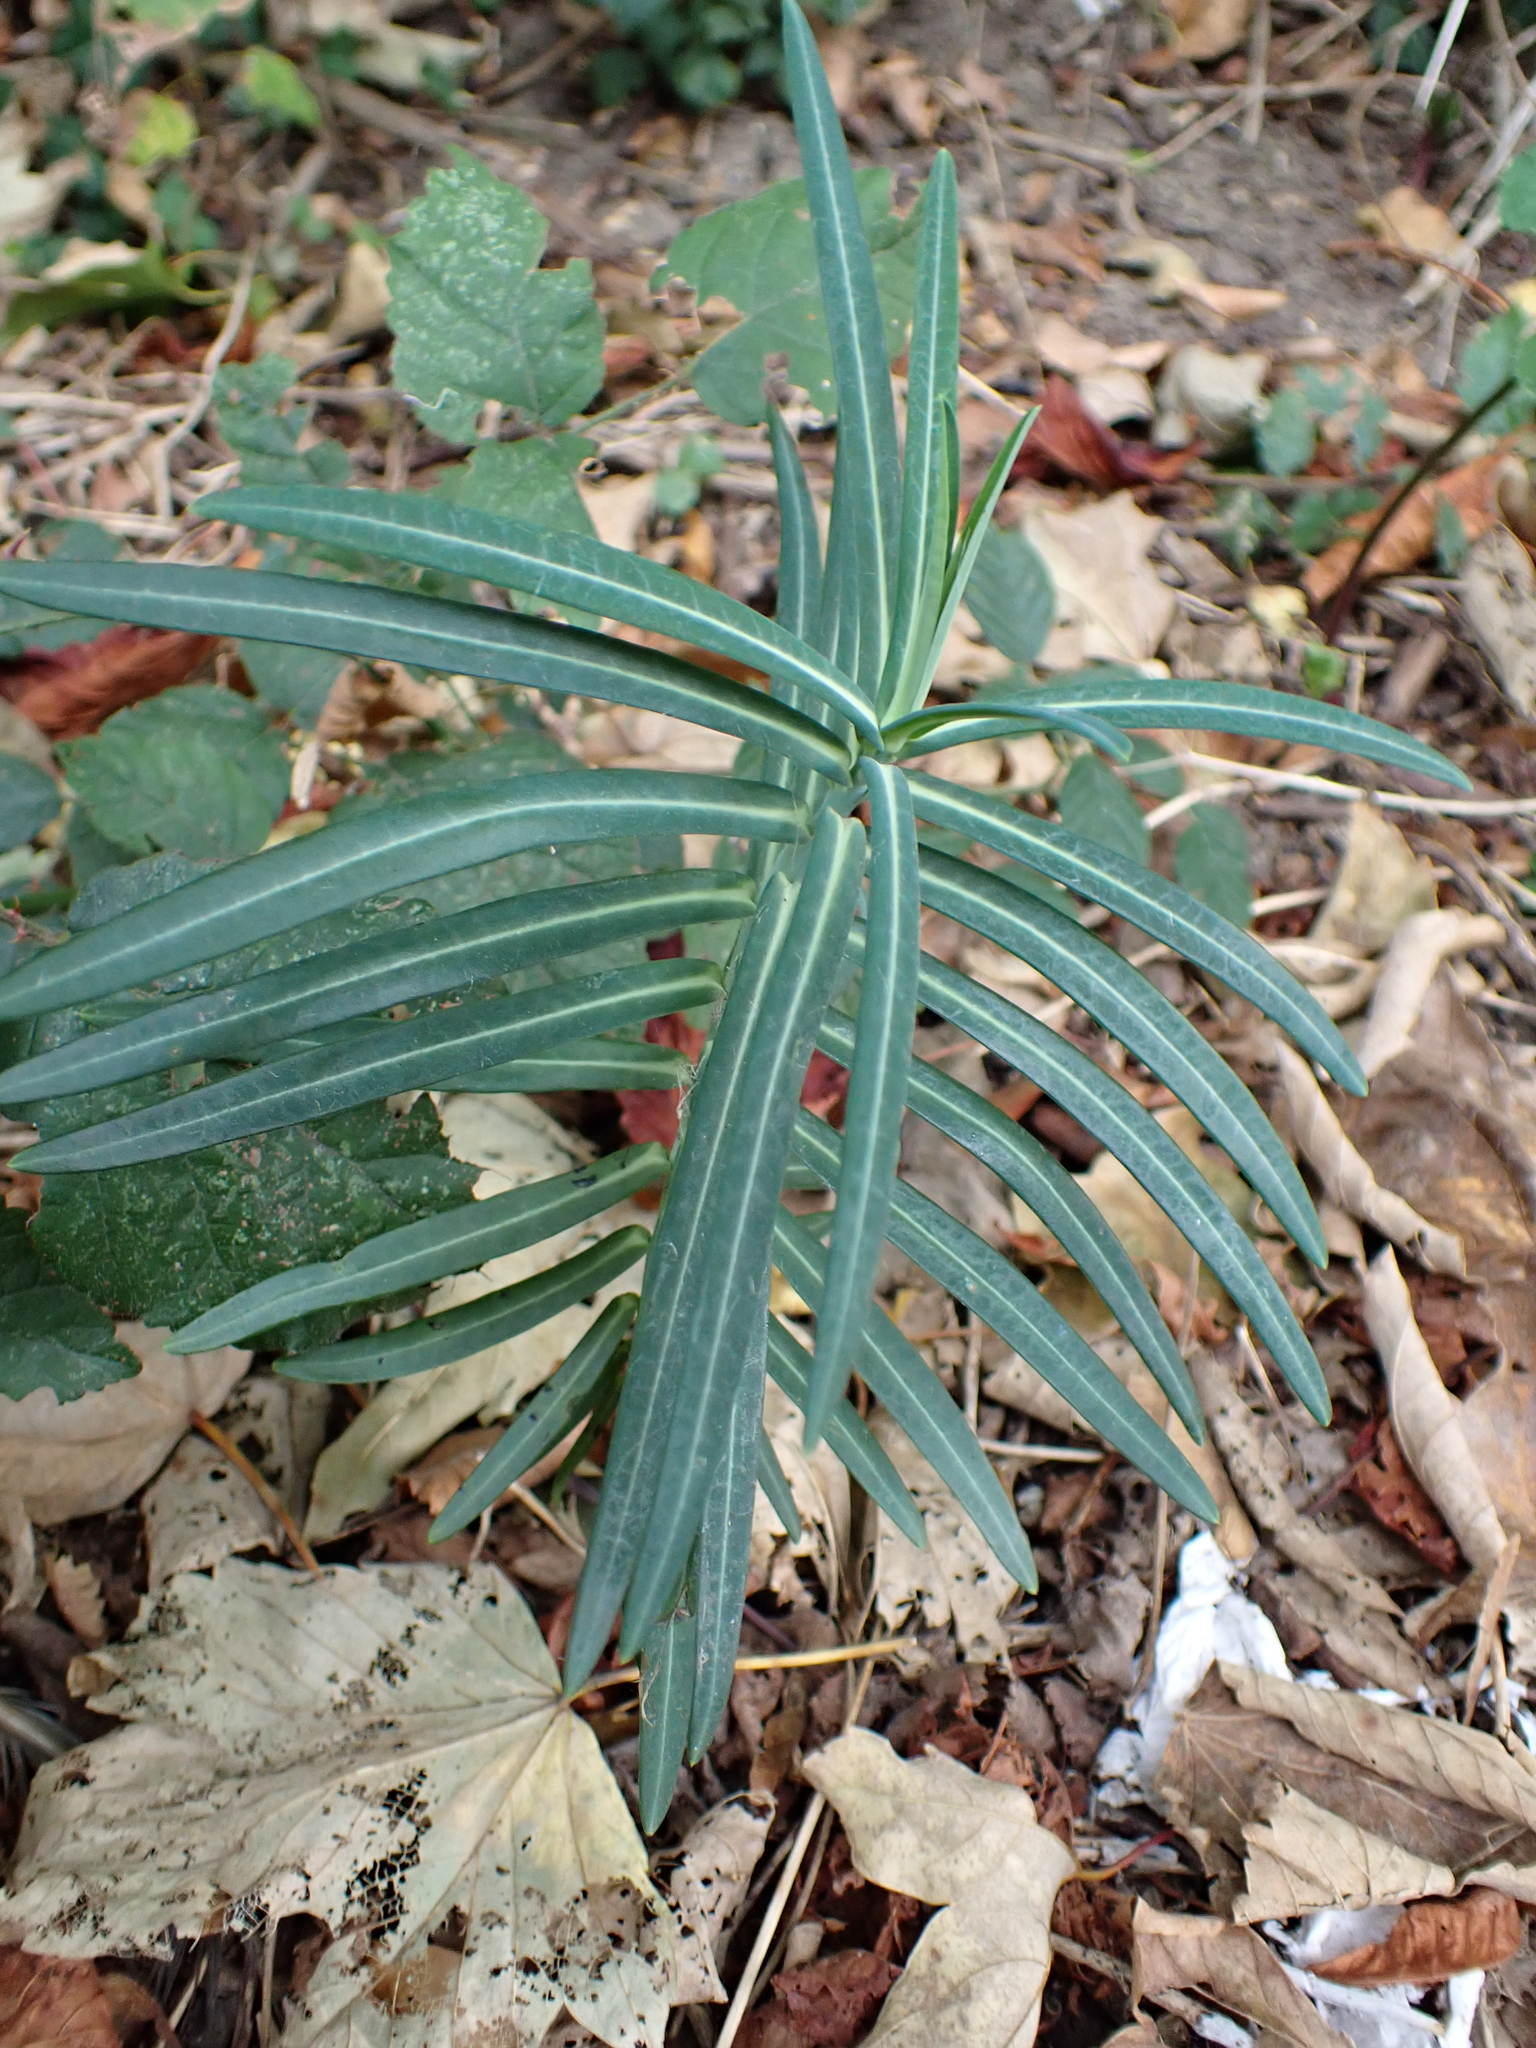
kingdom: Plantae
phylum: Tracheophyta
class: Magnoliopsida
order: Malpighiales
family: Euphorbiaceae
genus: Euphorbia
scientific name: Euphorbia lathyris
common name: Caper spurge
